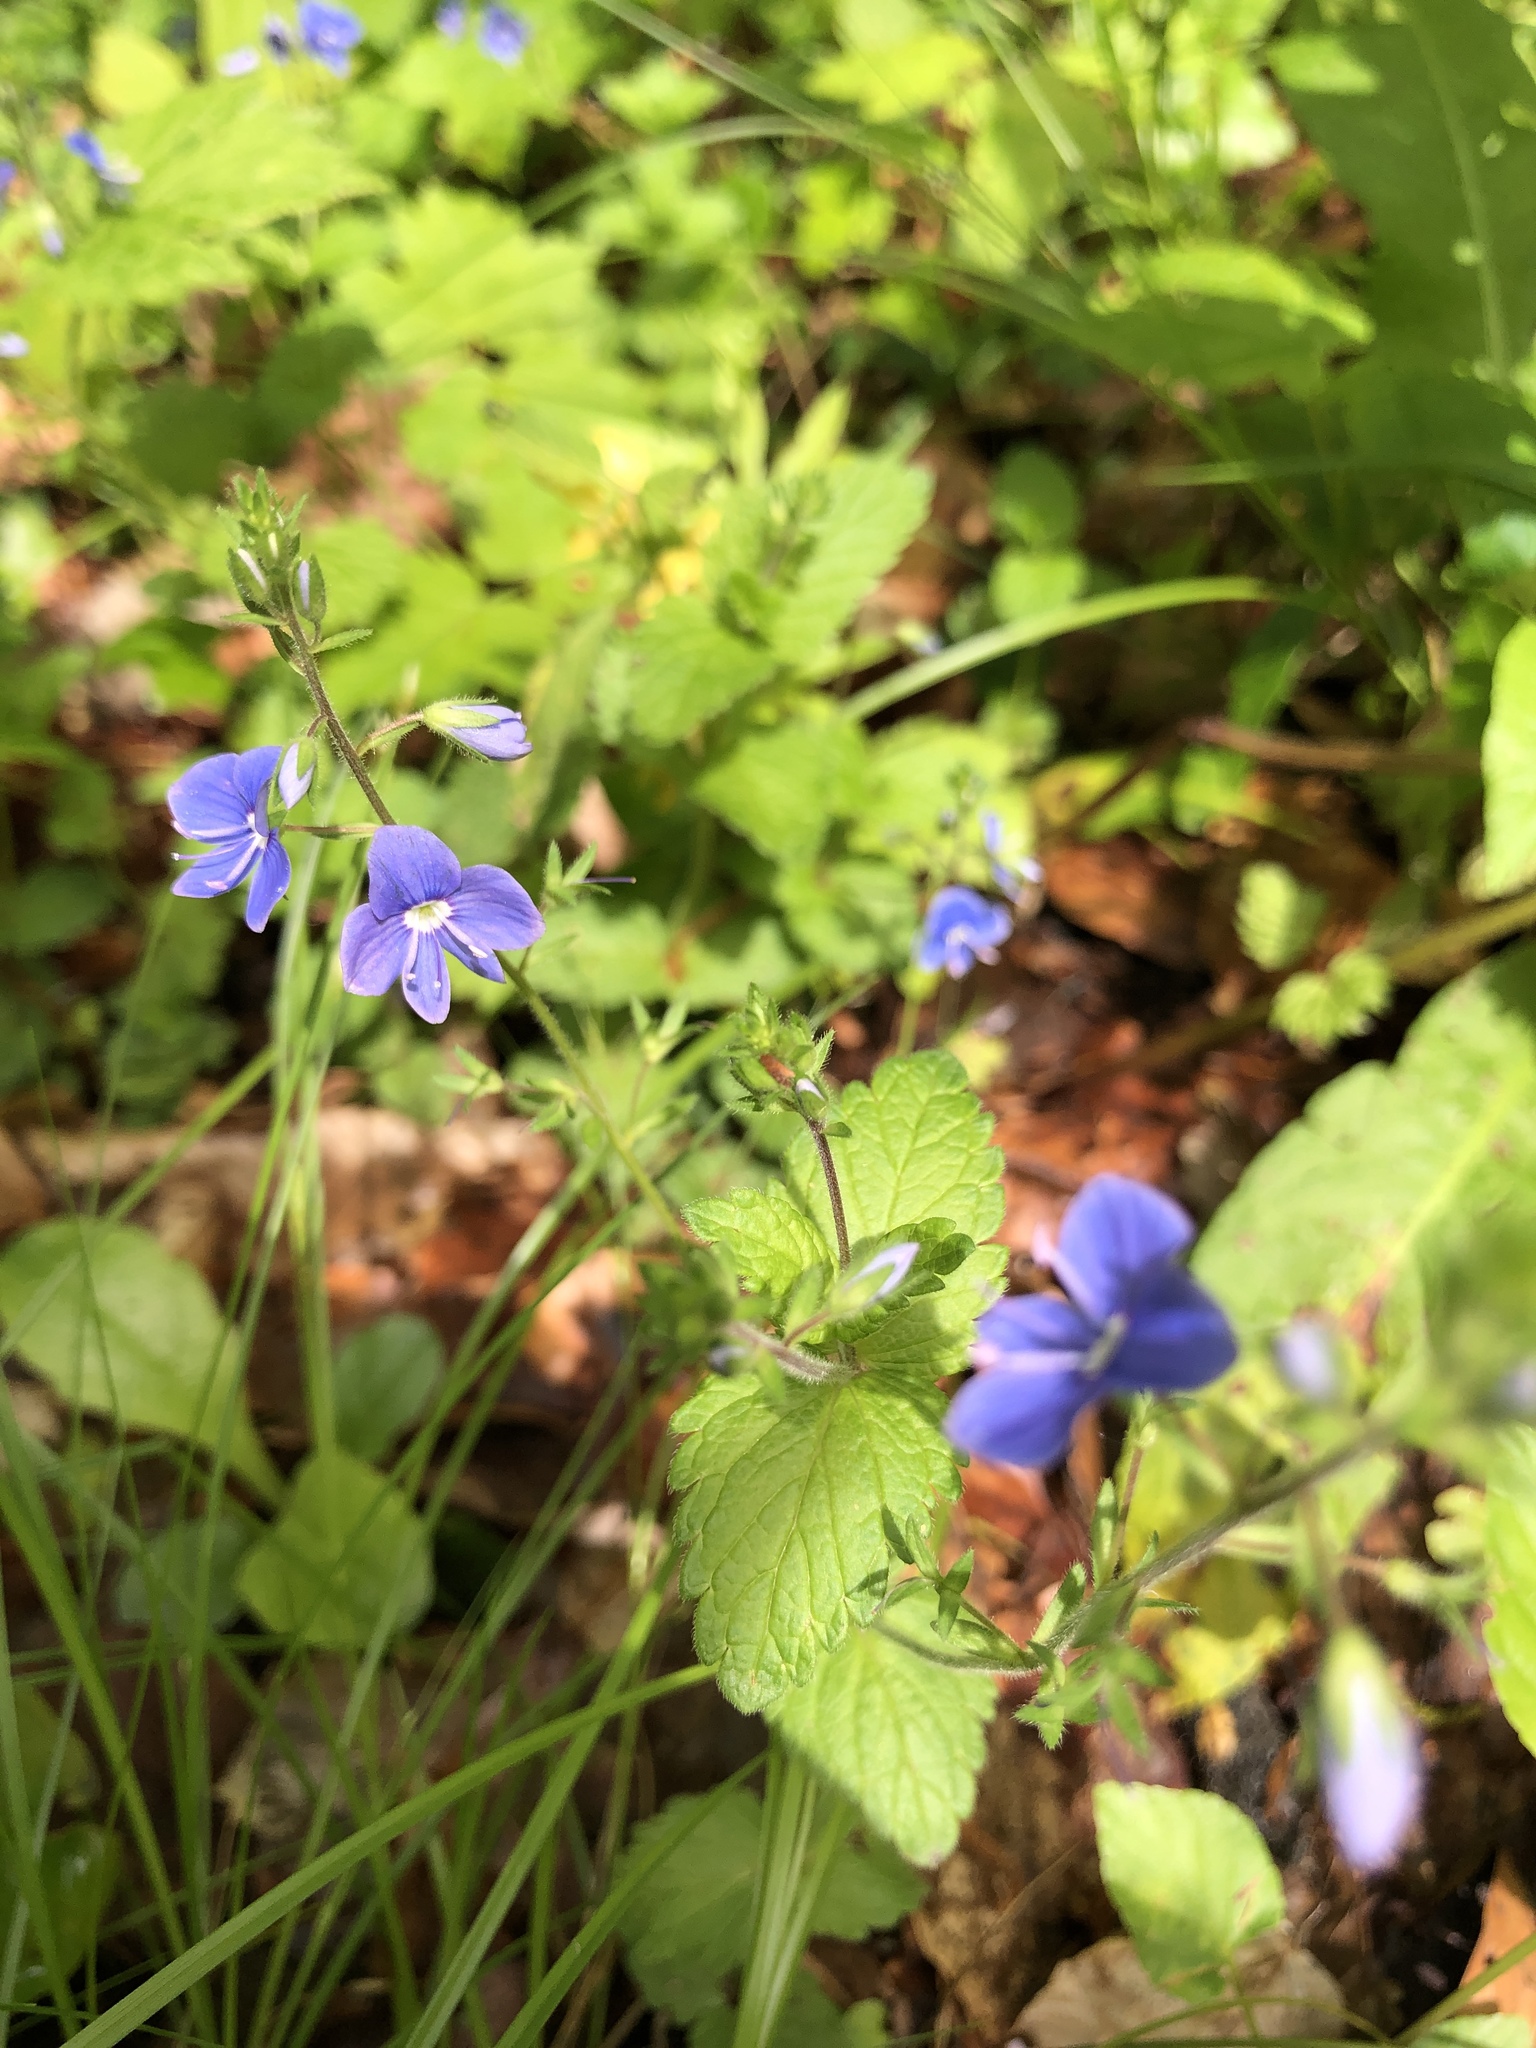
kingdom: Plantae
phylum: Tracheophyta
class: Magnoliopsida
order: Lamiales
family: Plantaginaceae
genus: Veronica
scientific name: Veronica chamaedrys
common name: Germander speedwell
